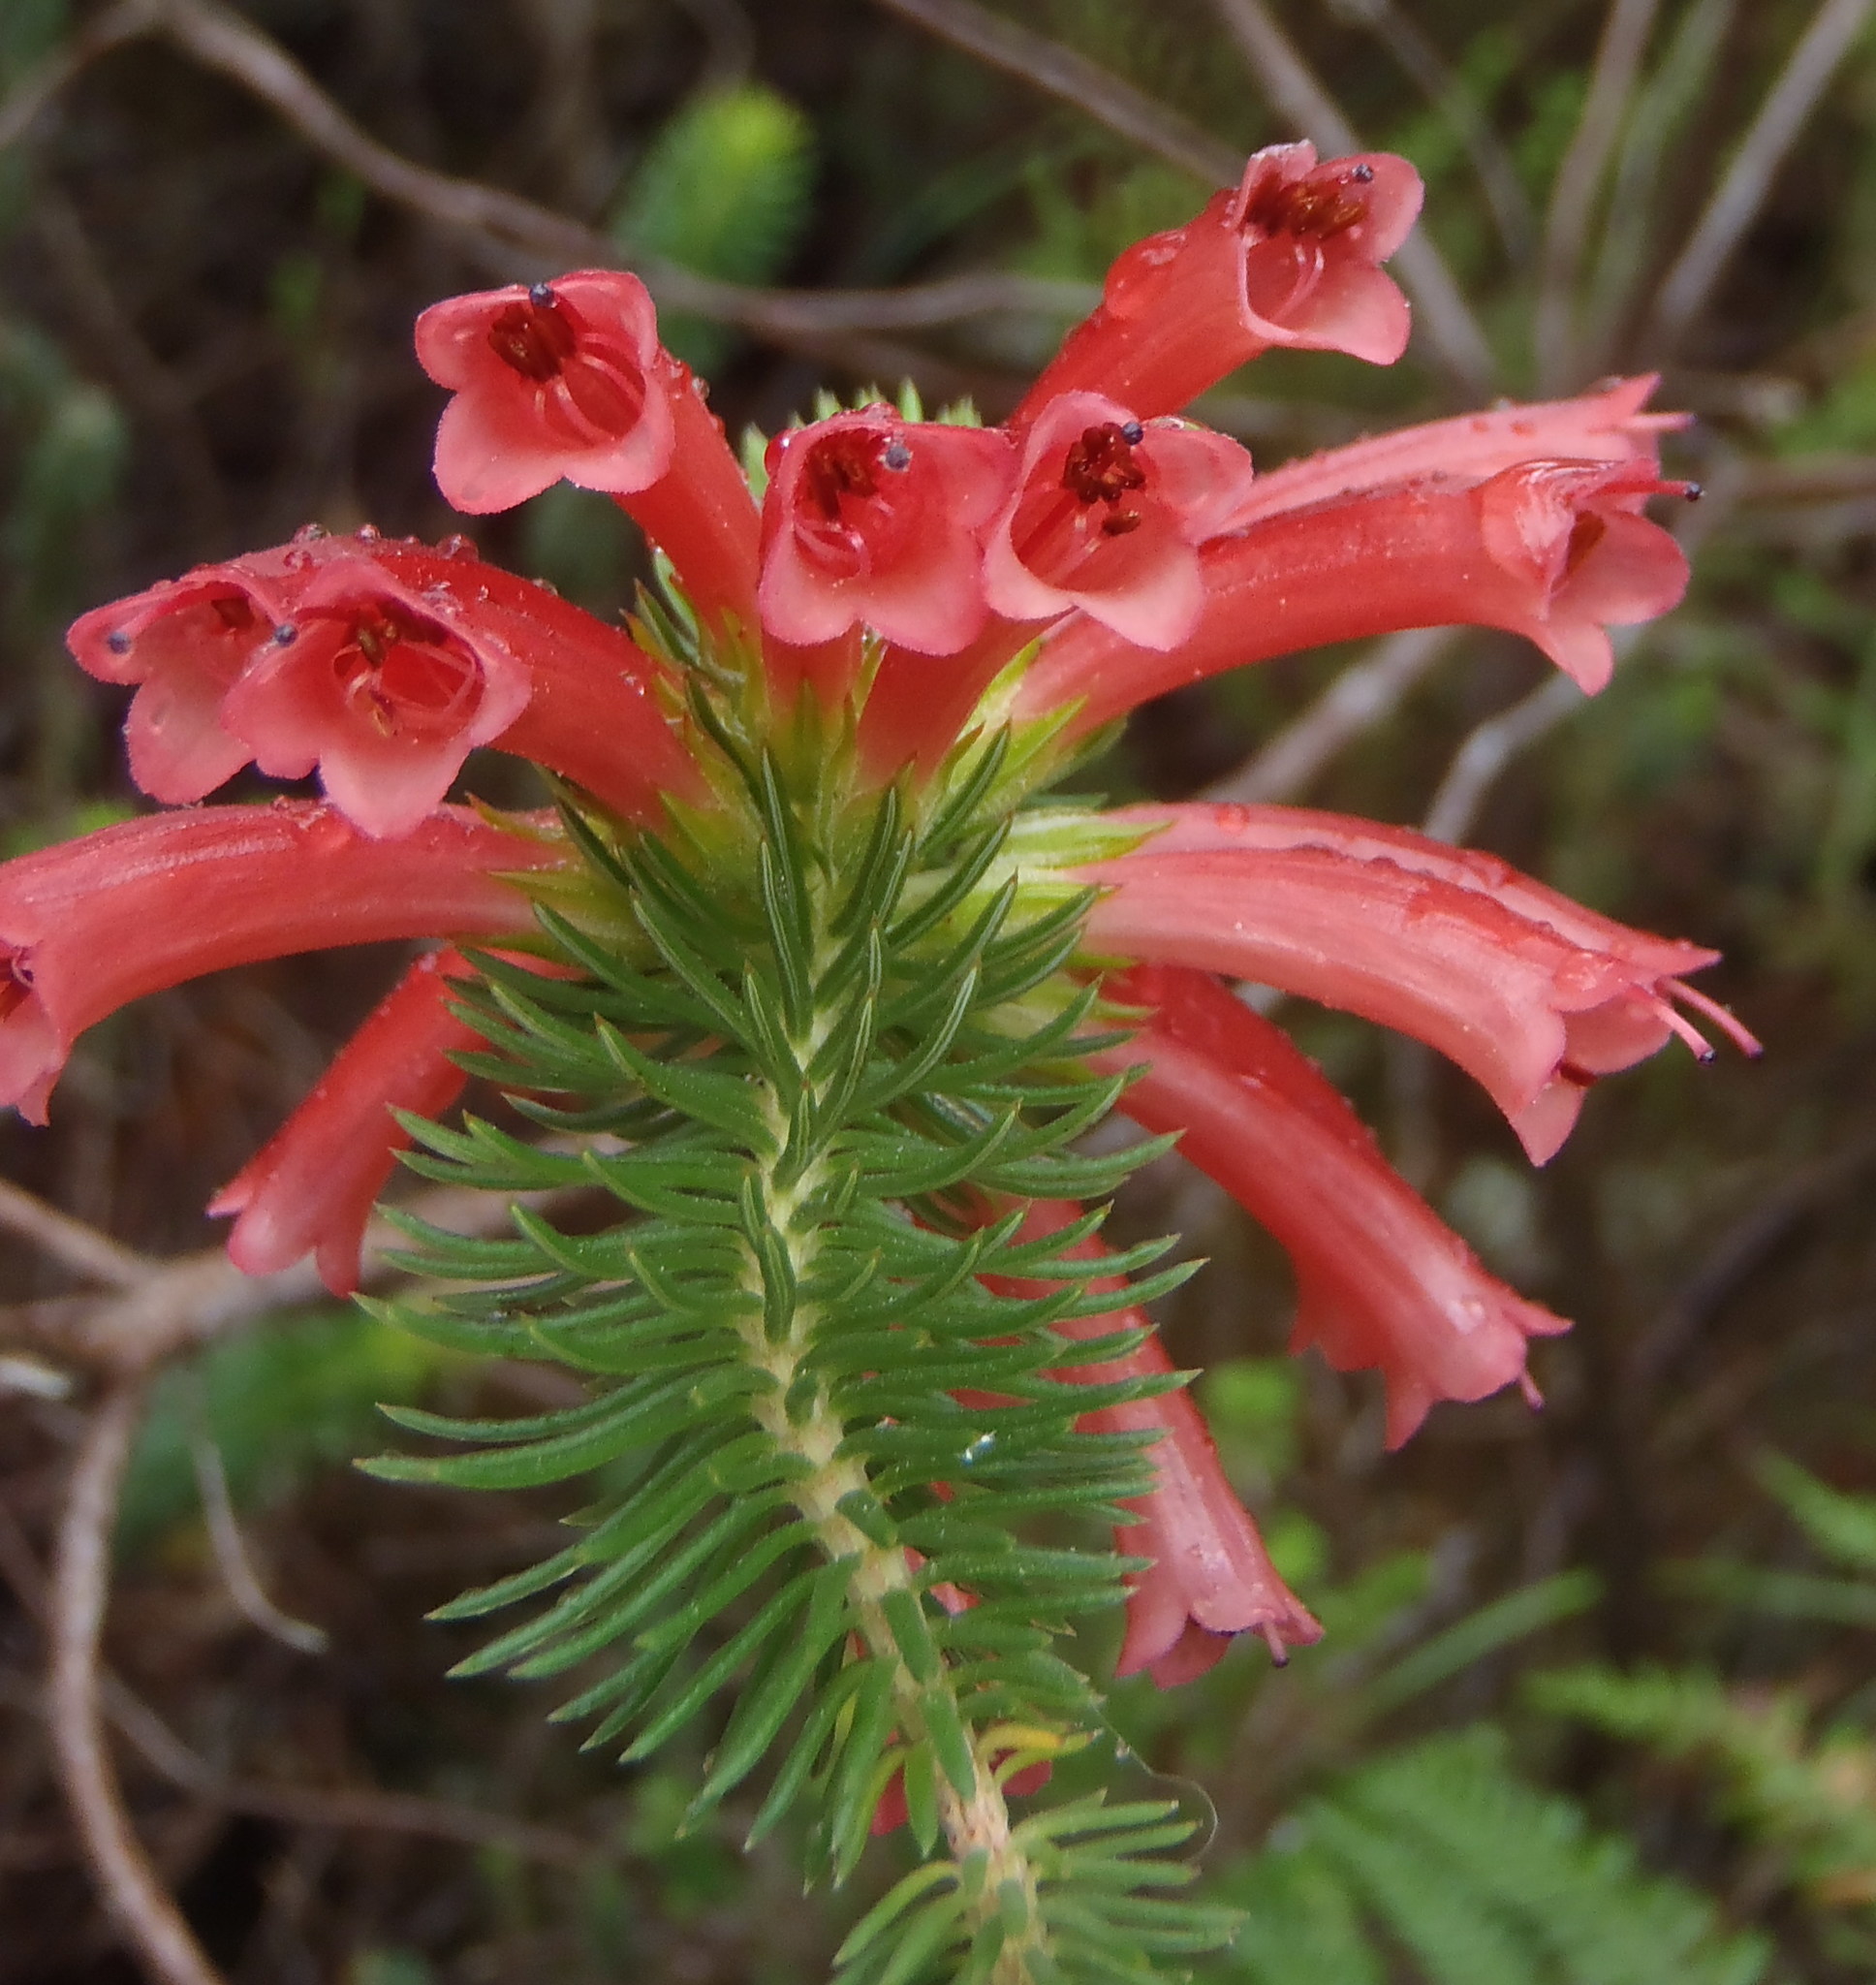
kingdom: Plantae
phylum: Tracheophyta
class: Magnoliopsida
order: Ericales
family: Ericaceae
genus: Erica
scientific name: Erica abietina
